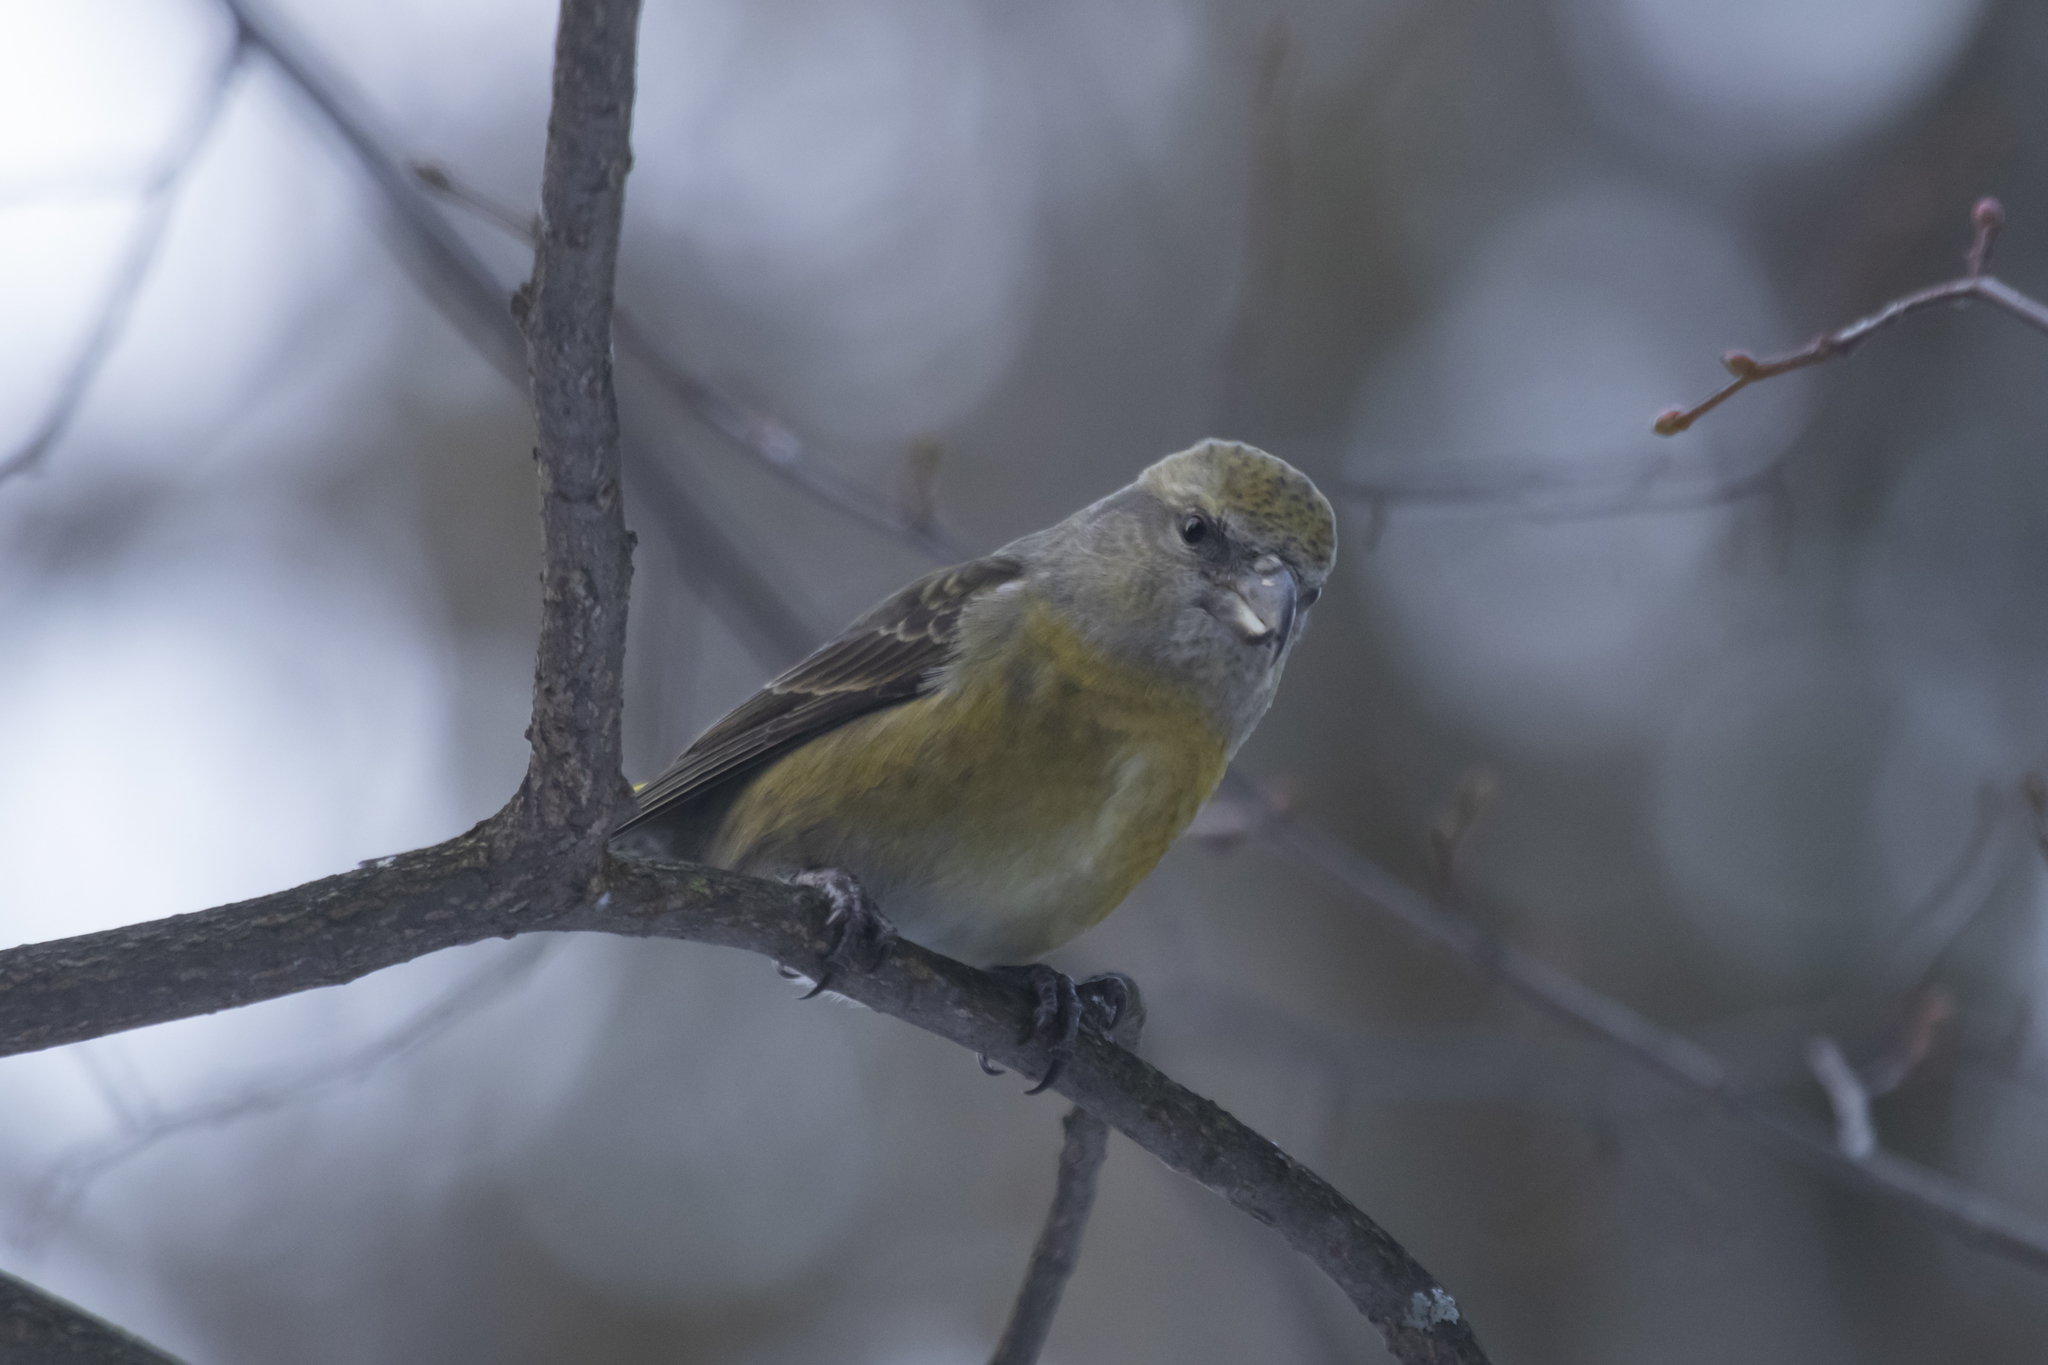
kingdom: Animalia
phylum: Chordata
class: Aves
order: Passeriformes
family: Fringillidae
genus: Loxia
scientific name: Loxia curvirostra
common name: Red crossbill
